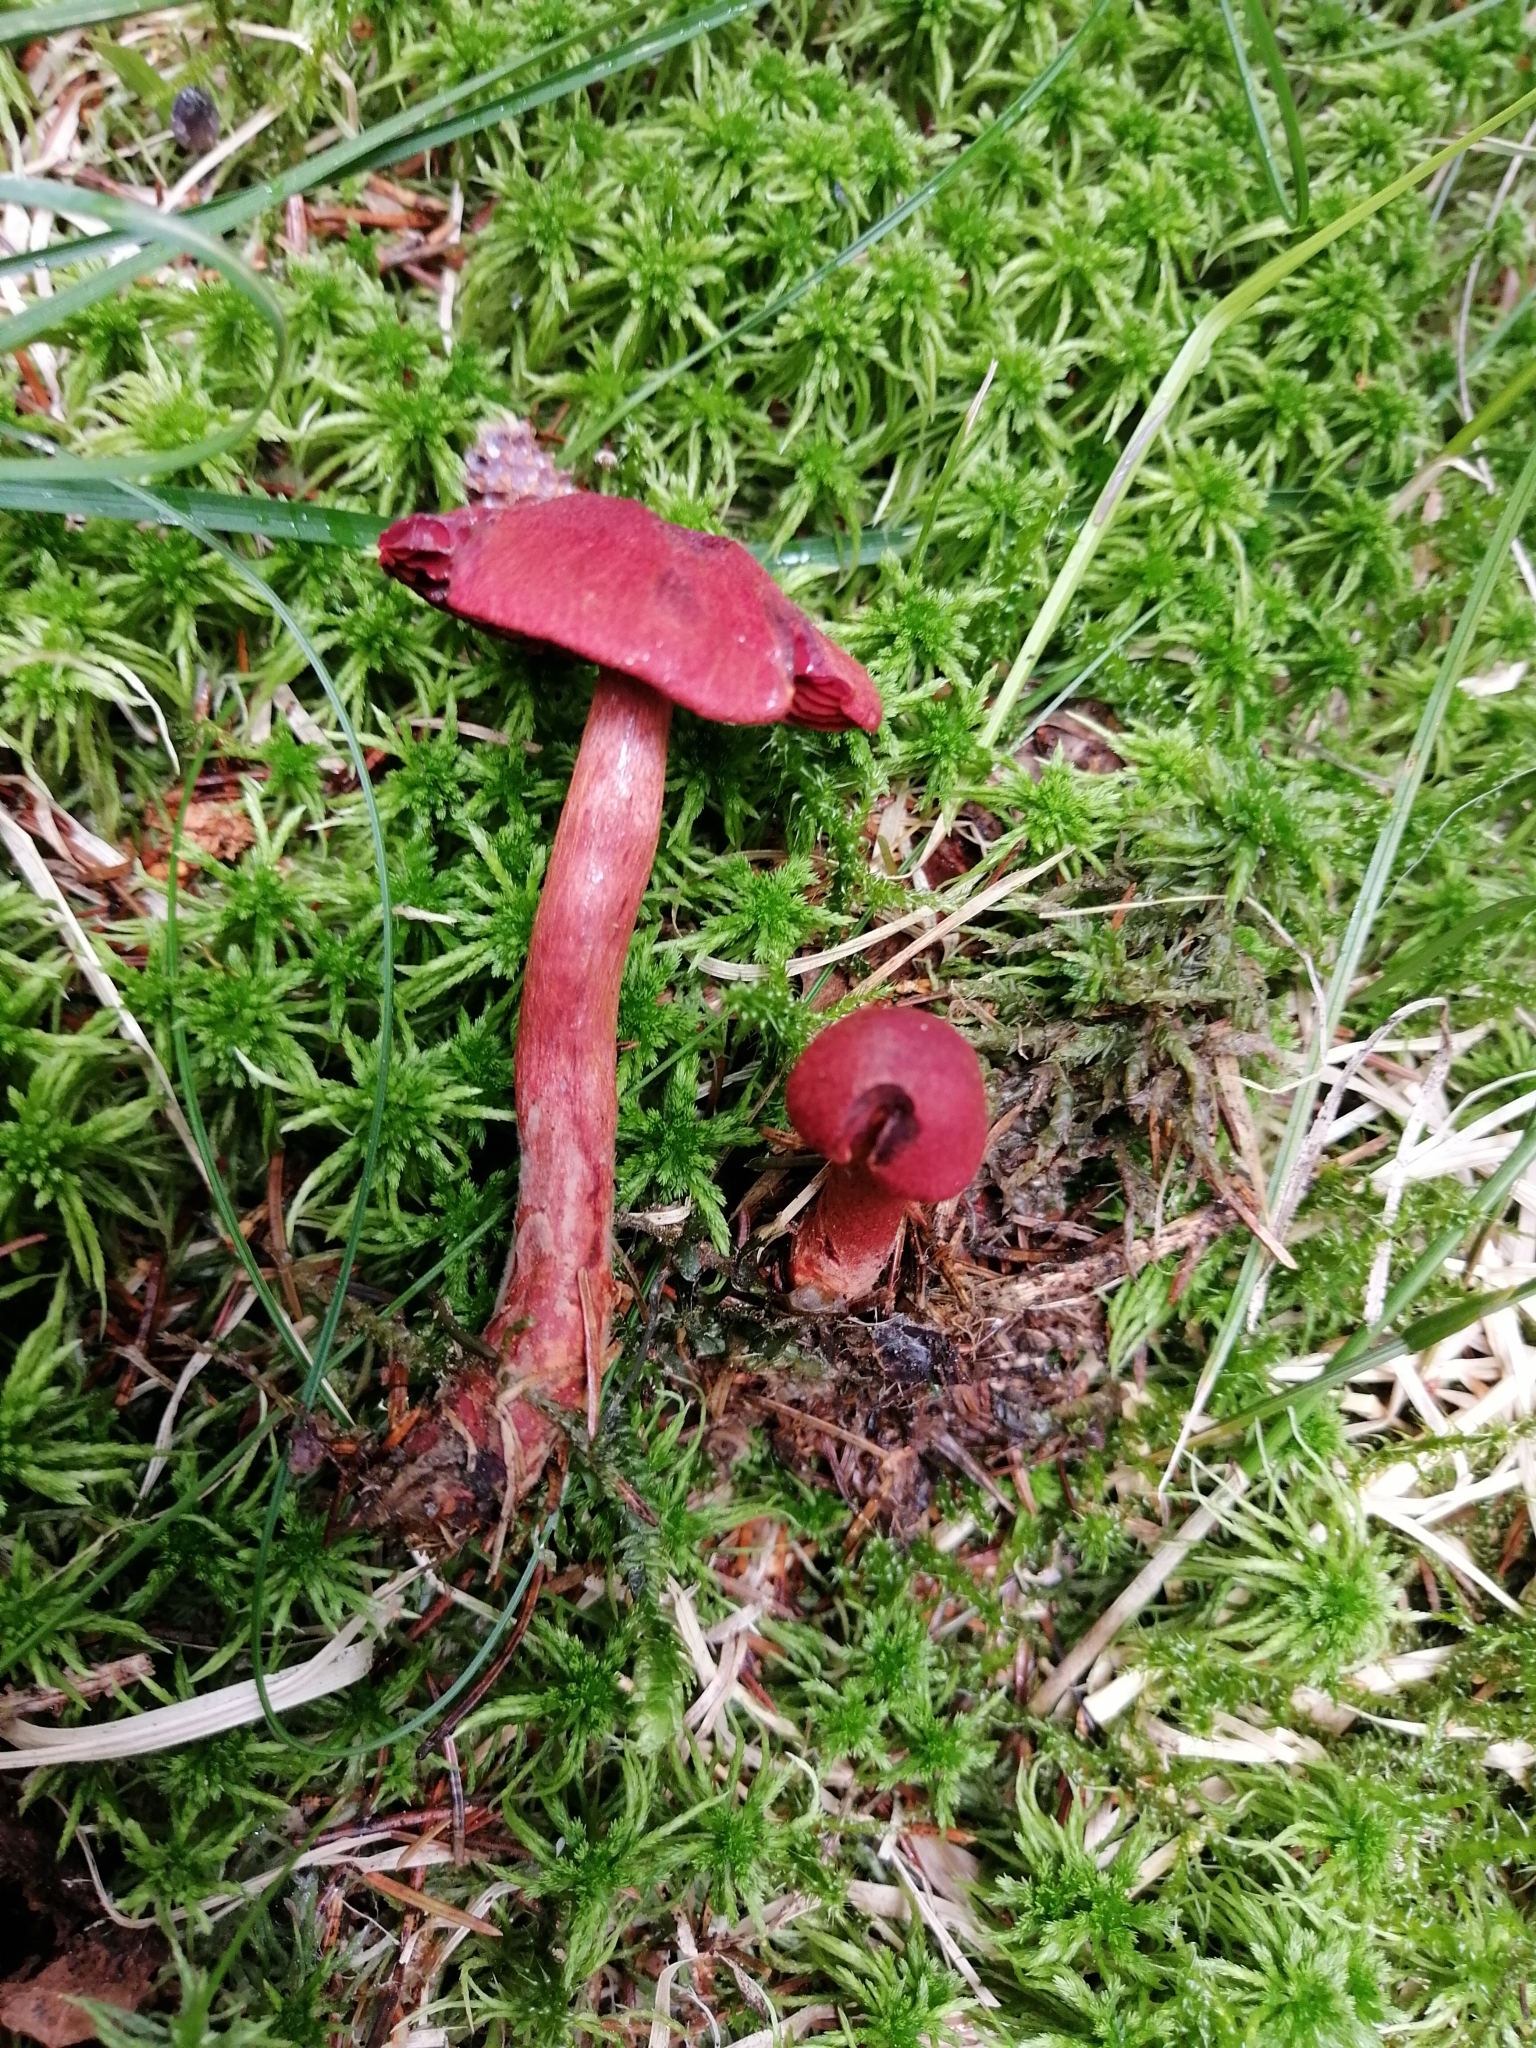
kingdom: Fungi
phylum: Basidiomycota
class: Agaricomycetes
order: Agaricales
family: Cortinariaceae
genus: Cortinarius
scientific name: Cortinarius sanguineus
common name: Bloodred webcap
